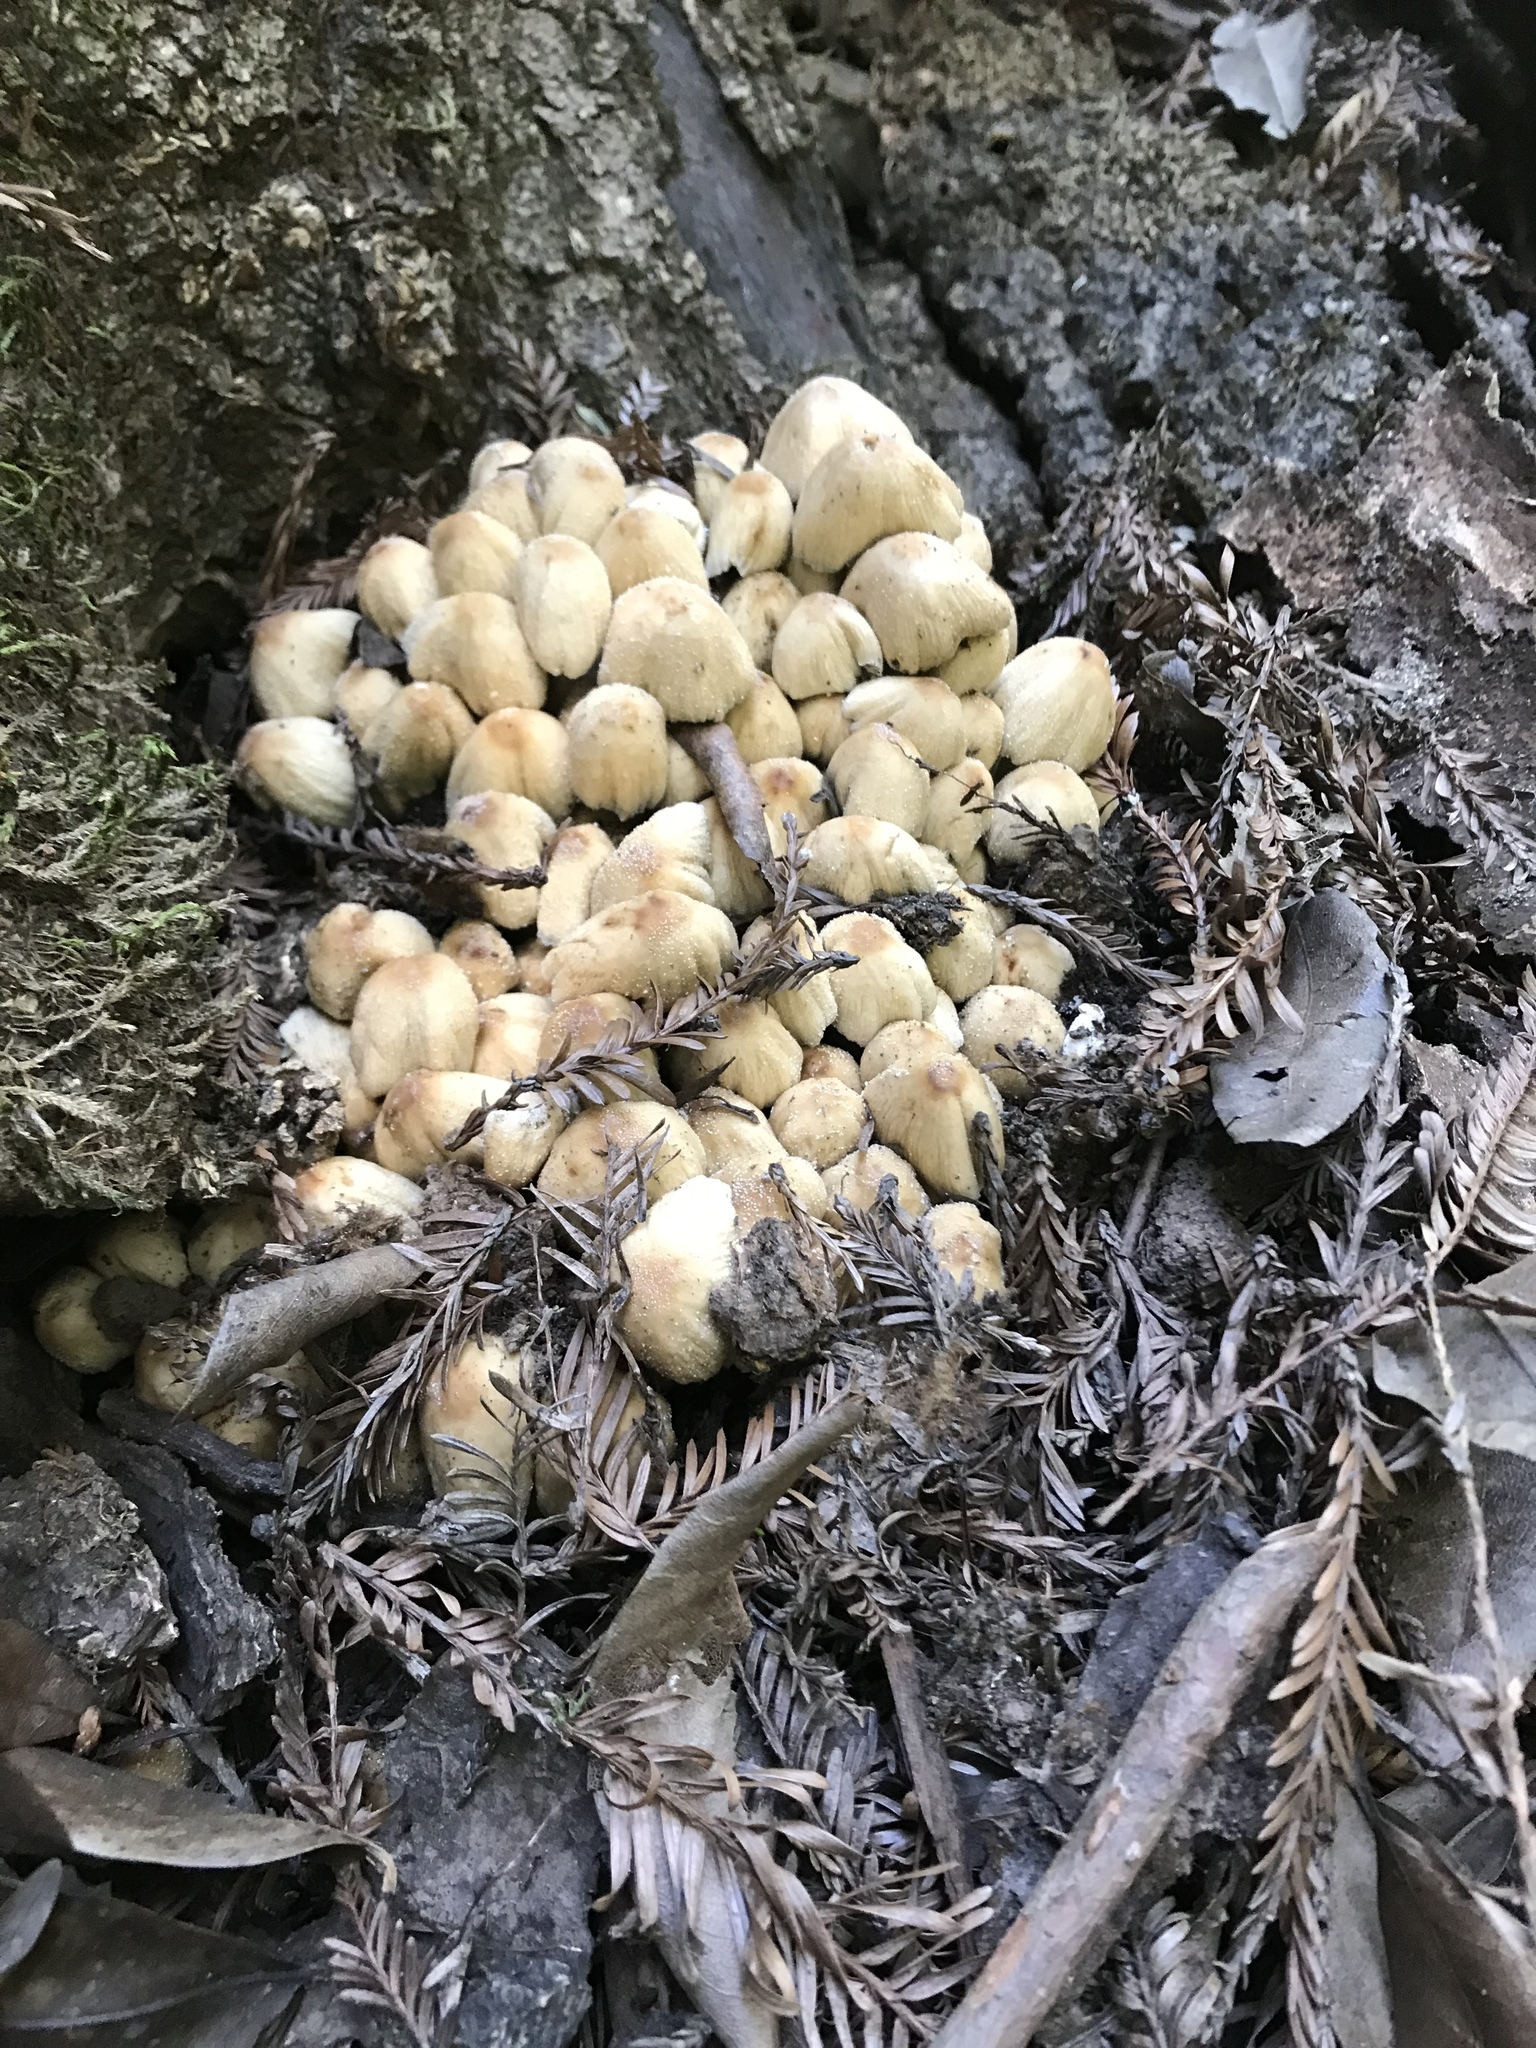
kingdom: Fungi
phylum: Basidiomycota
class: Agaricomycetes
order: Agaricales
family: Psathyrellaceae
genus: Coprinellus
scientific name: Coprinellus micaceus
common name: Glistening ink-cap
